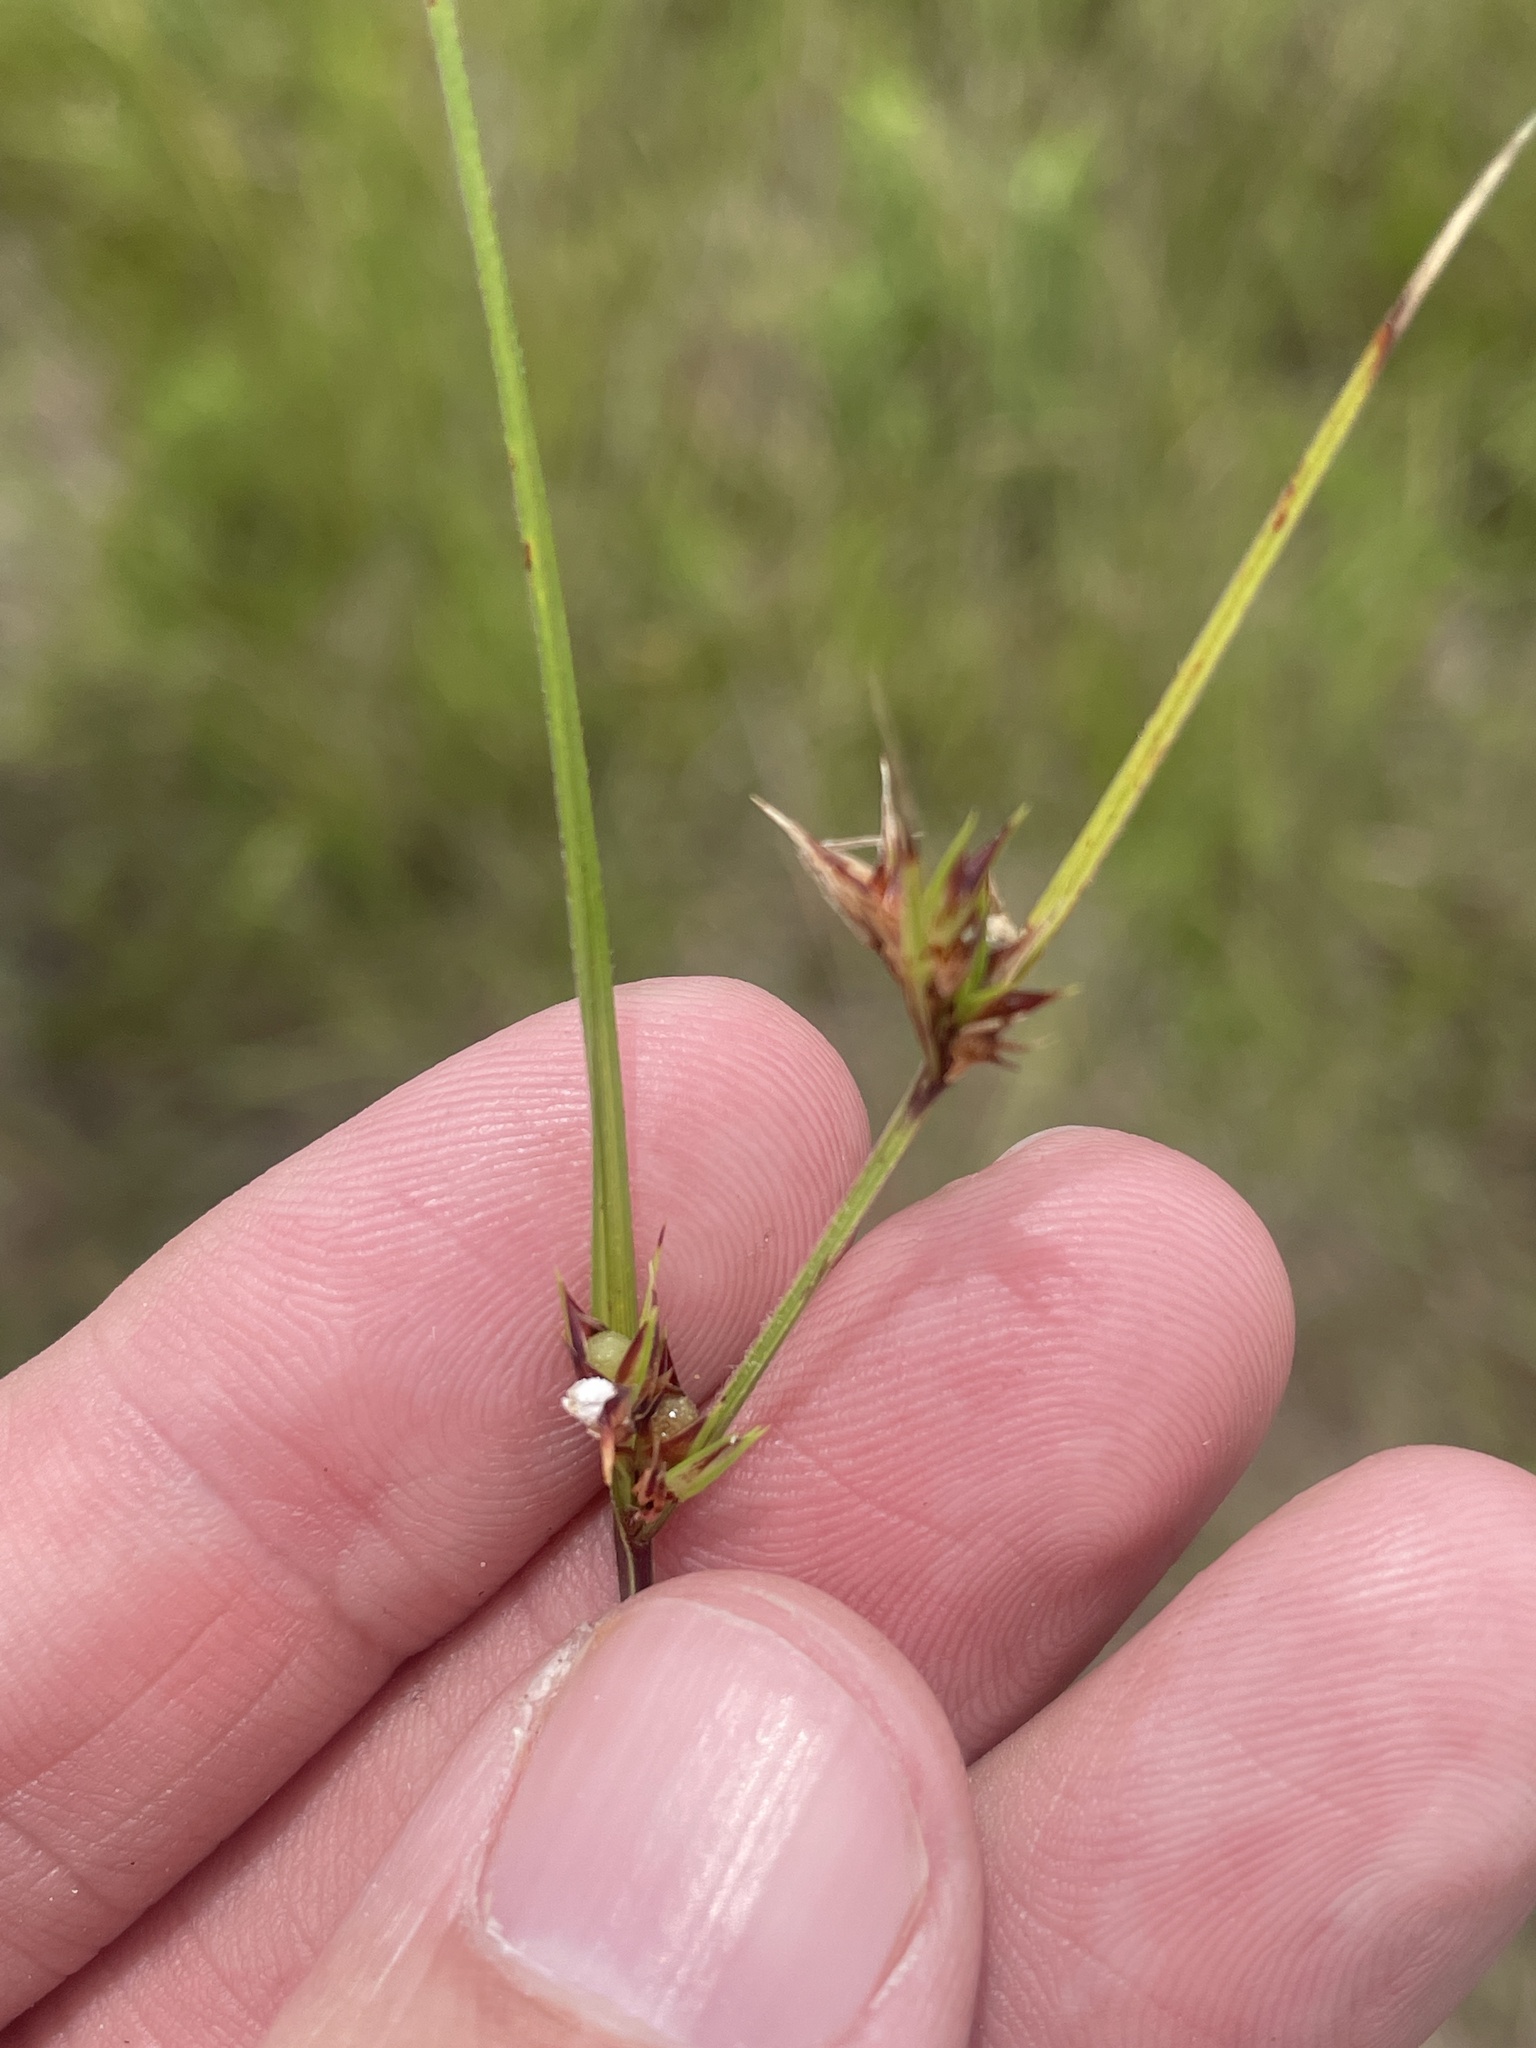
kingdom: Plantae
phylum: Tracheophyta
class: Liliopsida
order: Poales
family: Cyperaceae
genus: Scleria
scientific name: Scleria pauciflora
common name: Few-flowered nutrush
